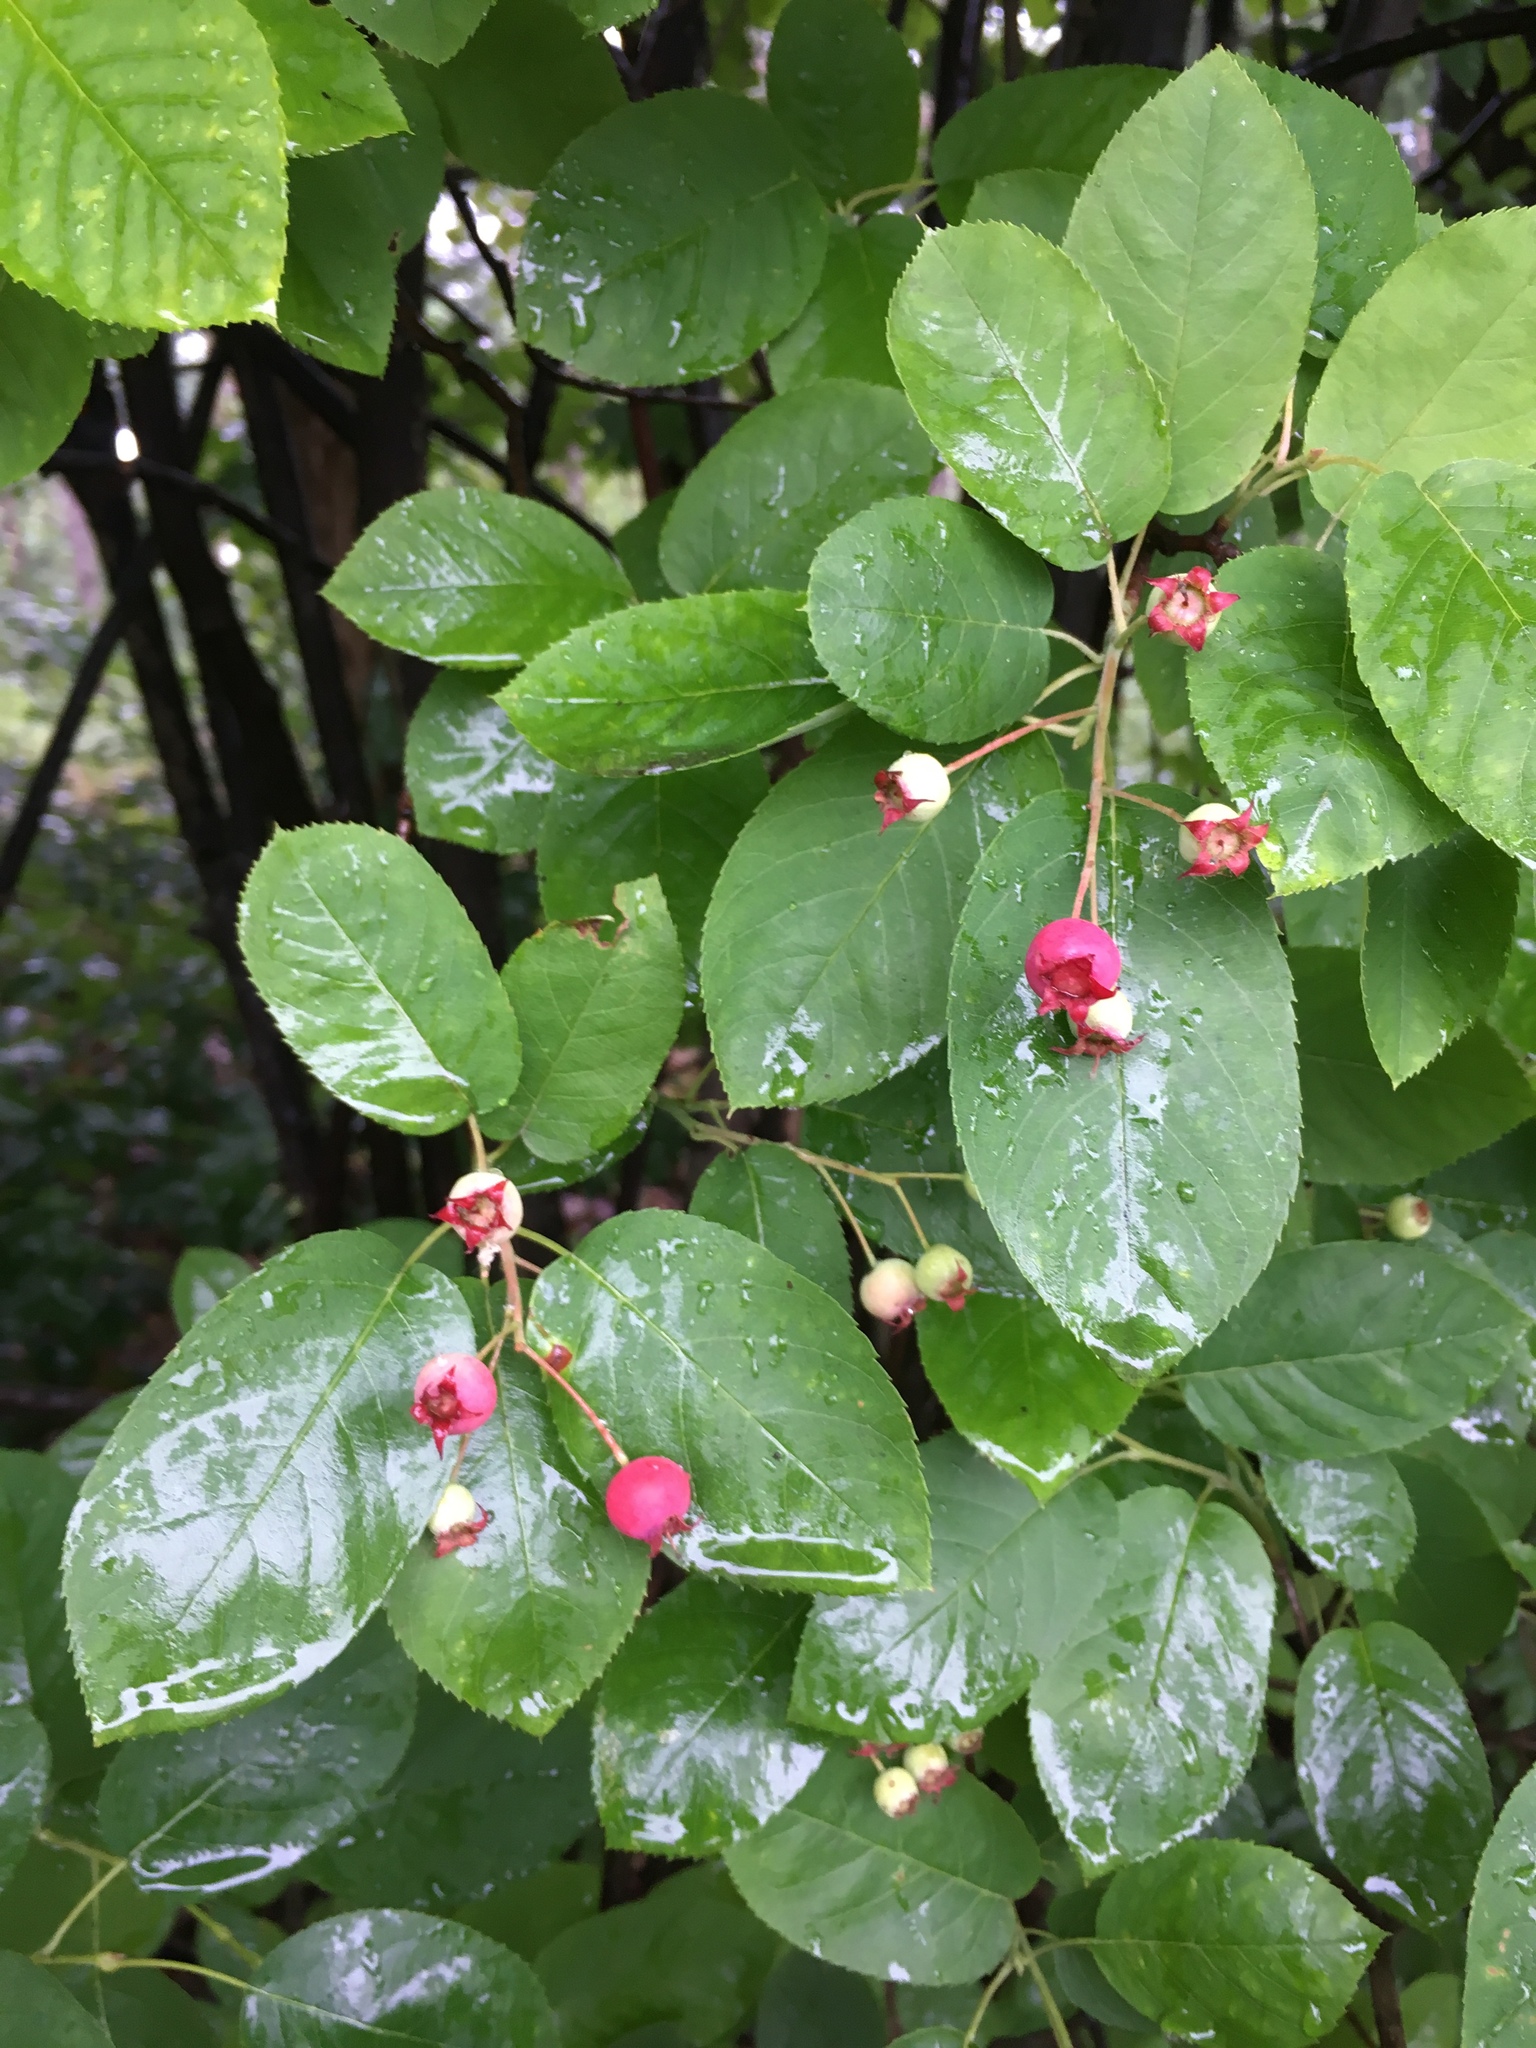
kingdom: Plantae
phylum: Tracheophyta
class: Magnoliopsida
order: Rosales
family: Rosaceae
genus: Amelanchier
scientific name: Amelanchier arborea
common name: Downy serviceberry
